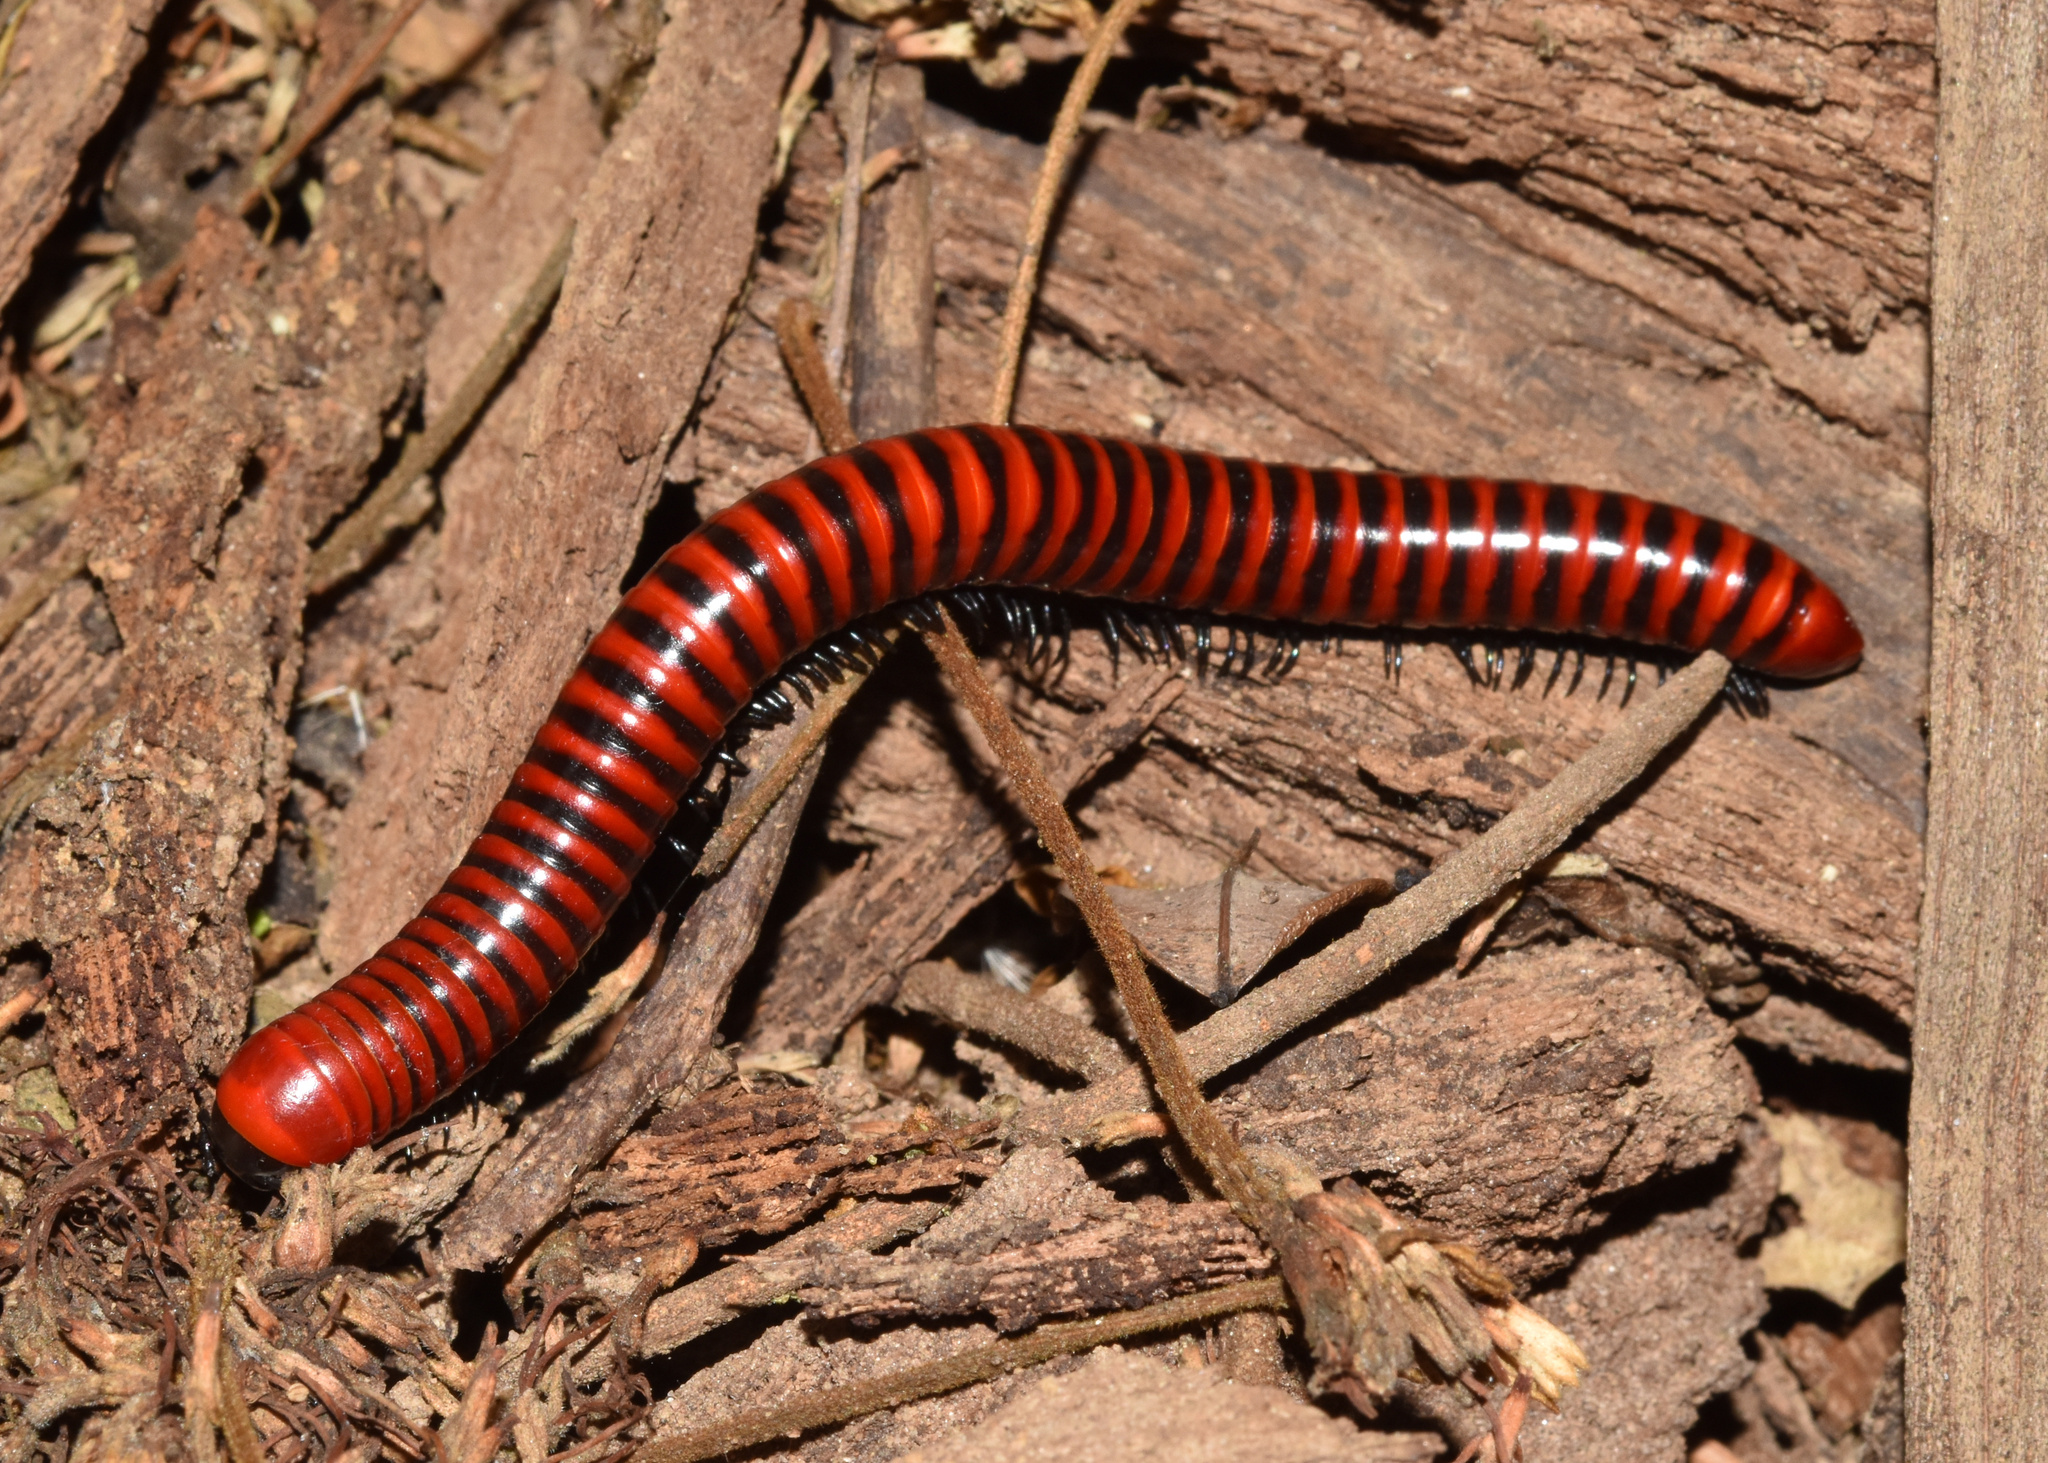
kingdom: Animalia
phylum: Arthropoda
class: Diplopoda
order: Spirobolida
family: Pachybolidae
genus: Centrobolus
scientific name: Centrobolus anulatus
